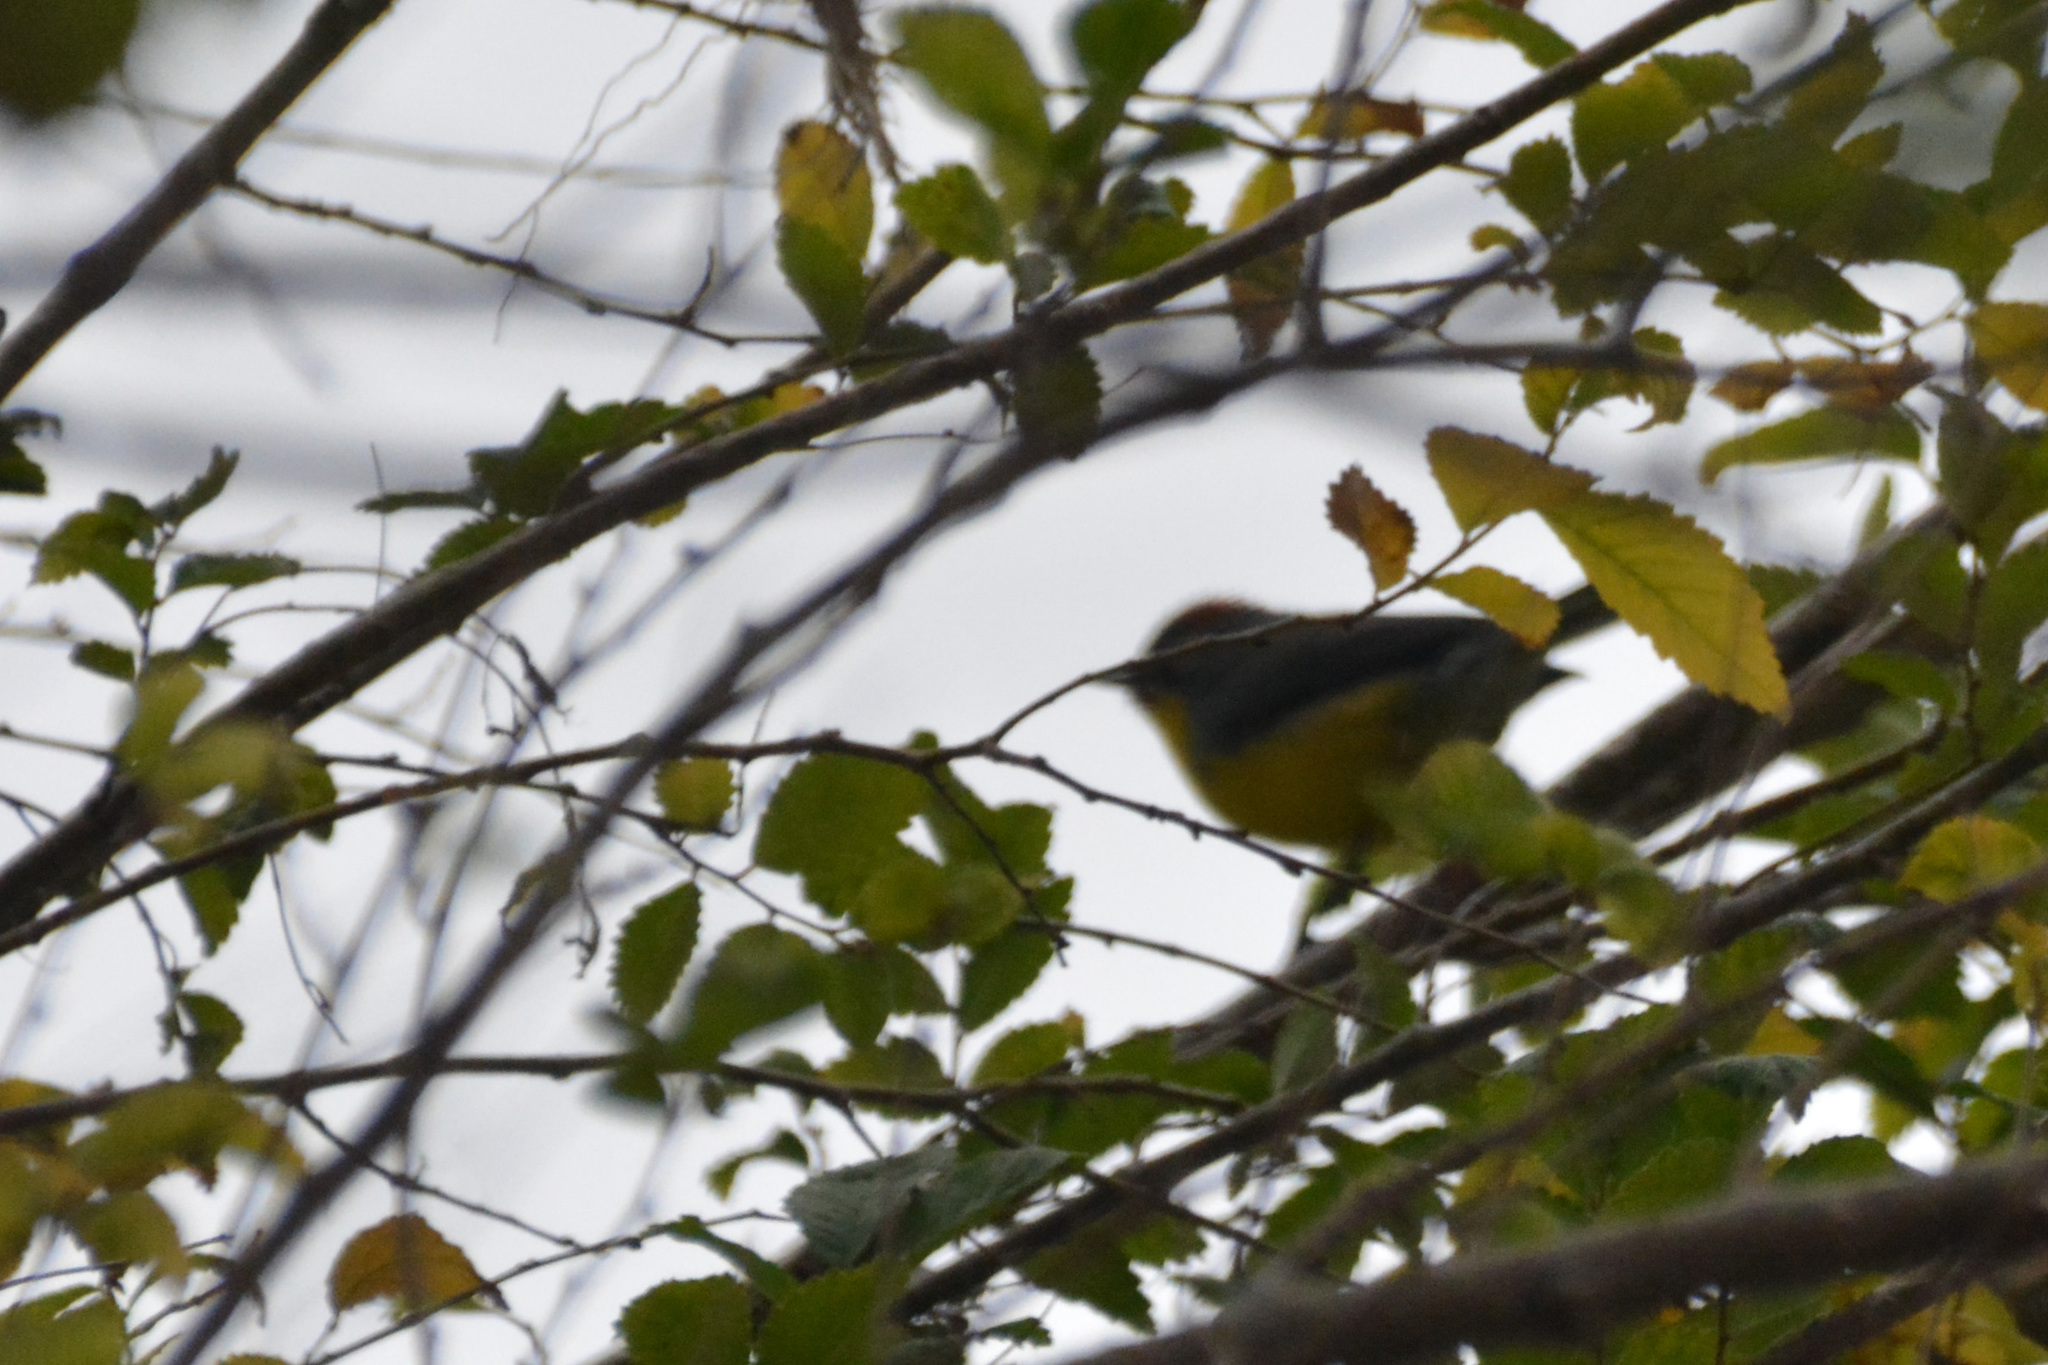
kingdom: Animalia
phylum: Chordata
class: Aves
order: Passeriformes
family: Parulidae
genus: Myioborus
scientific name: Myioborus brunniceps
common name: Brown-capped whitestart
